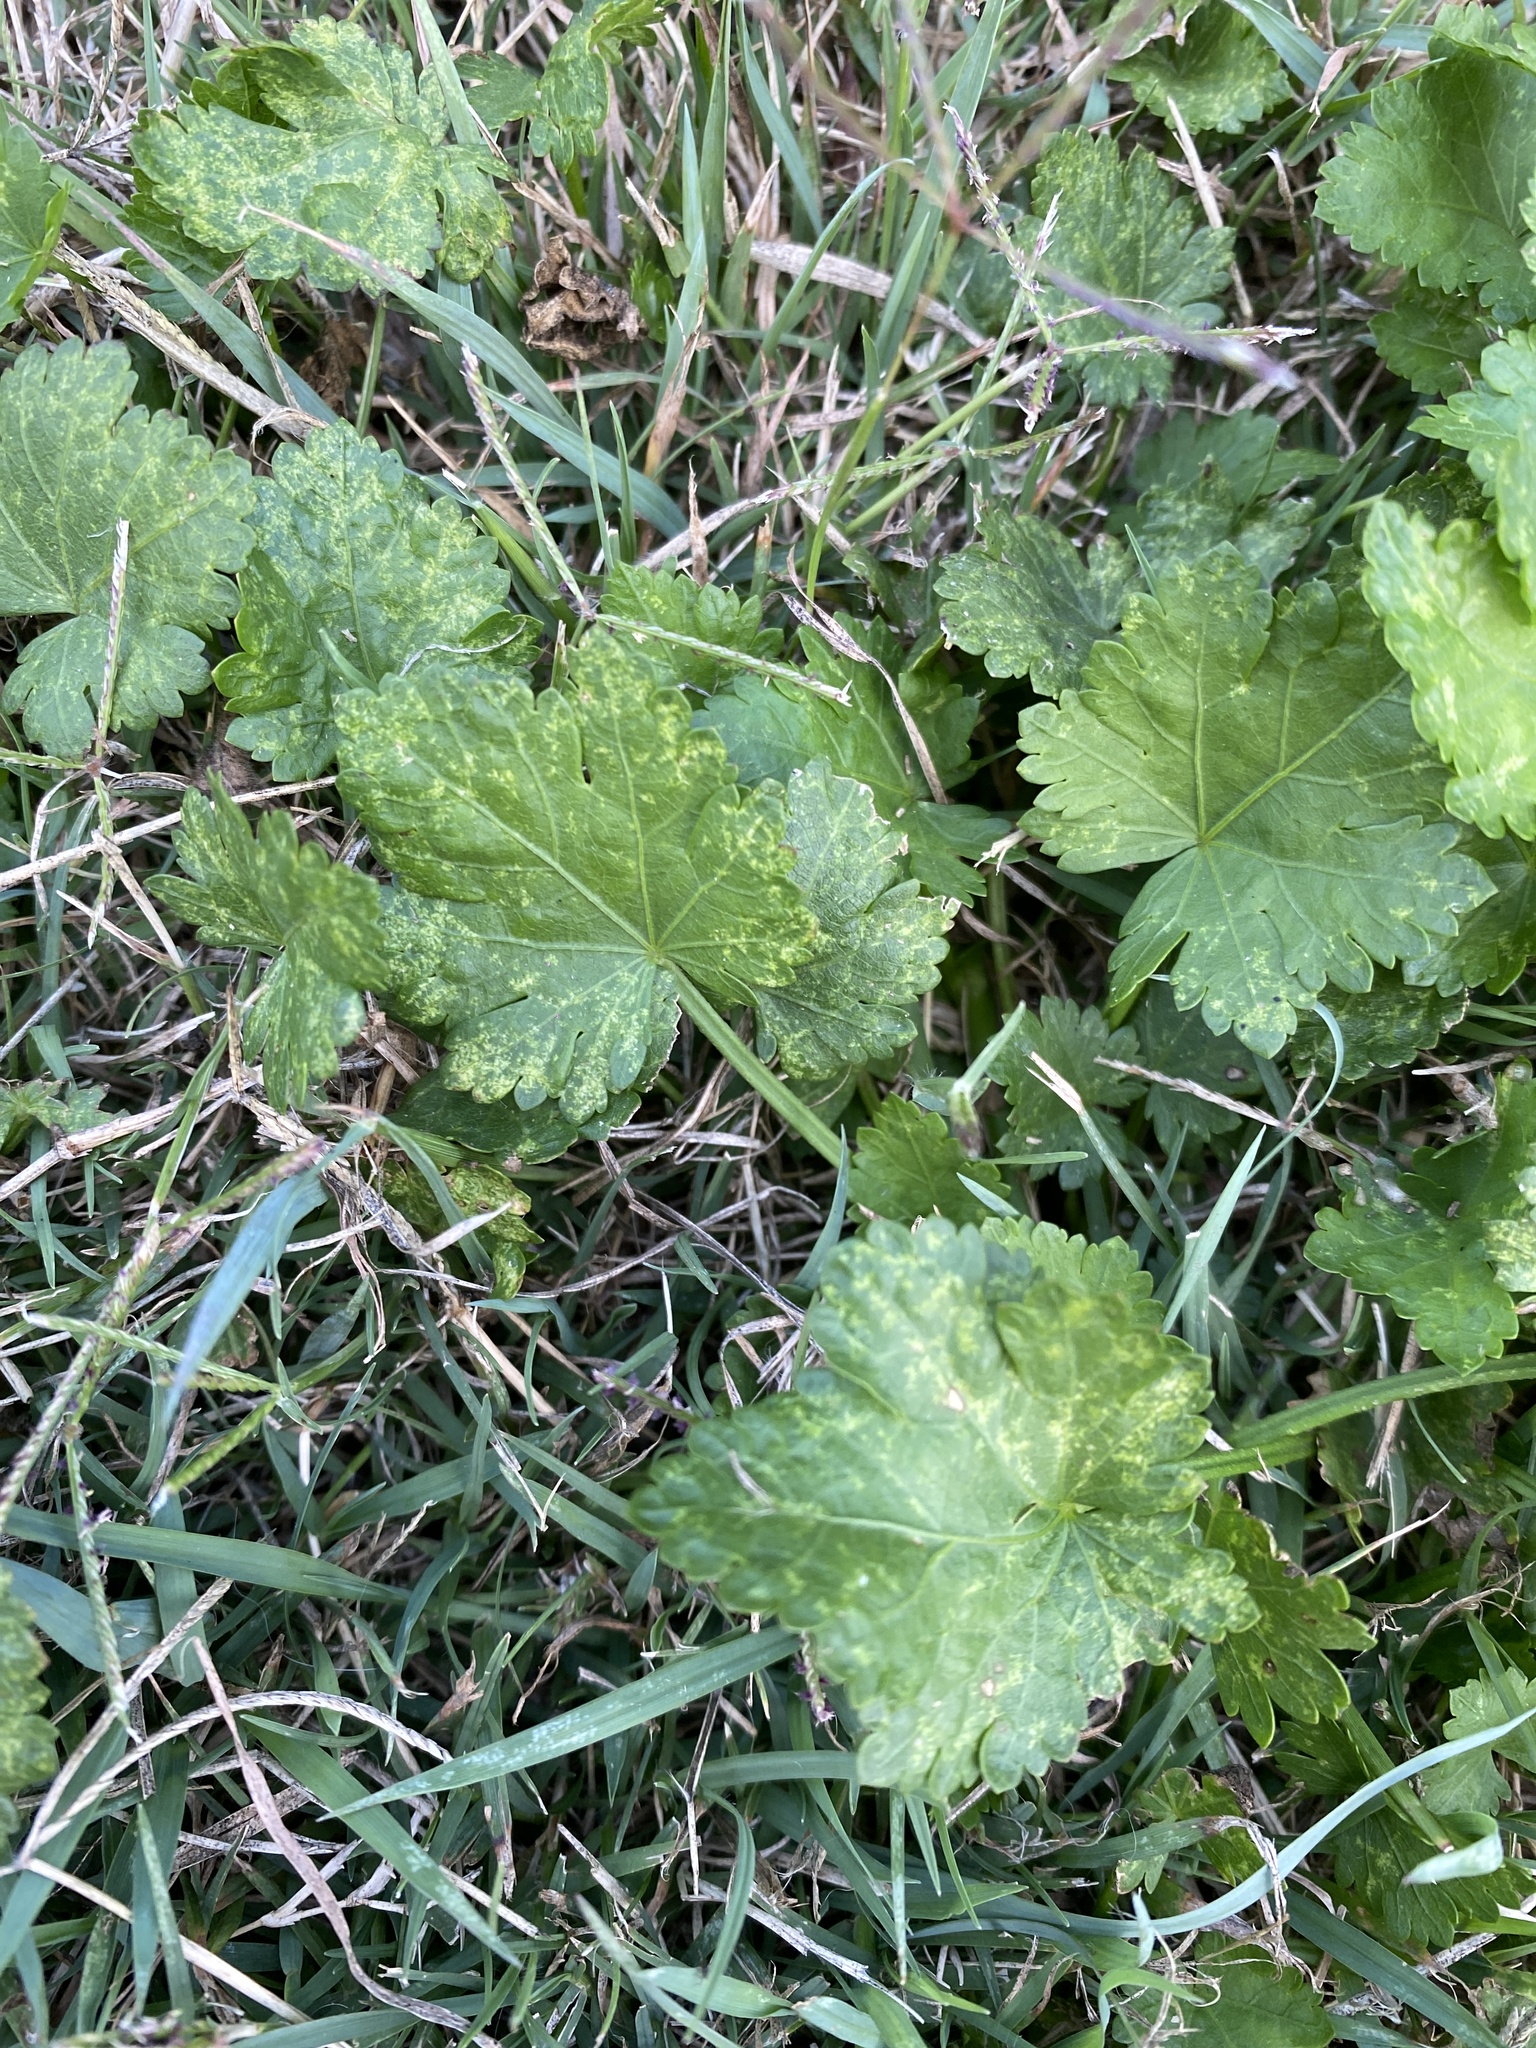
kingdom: Plantae
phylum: Tracheophyta
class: Magnoliopsida
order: Malvales
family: Malvaceae
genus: Modiola
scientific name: Modiola caroliniana
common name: Carolina bristlemallow
